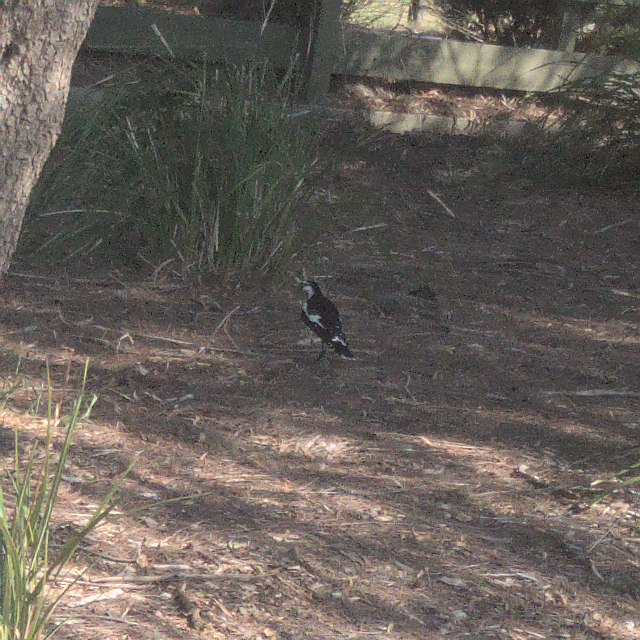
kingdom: Animalia
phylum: Chordata
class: Aves
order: Passeriformes
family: Monarchidae
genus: Grallina
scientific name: Grallina cyanoleuca
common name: Magpie-lark
